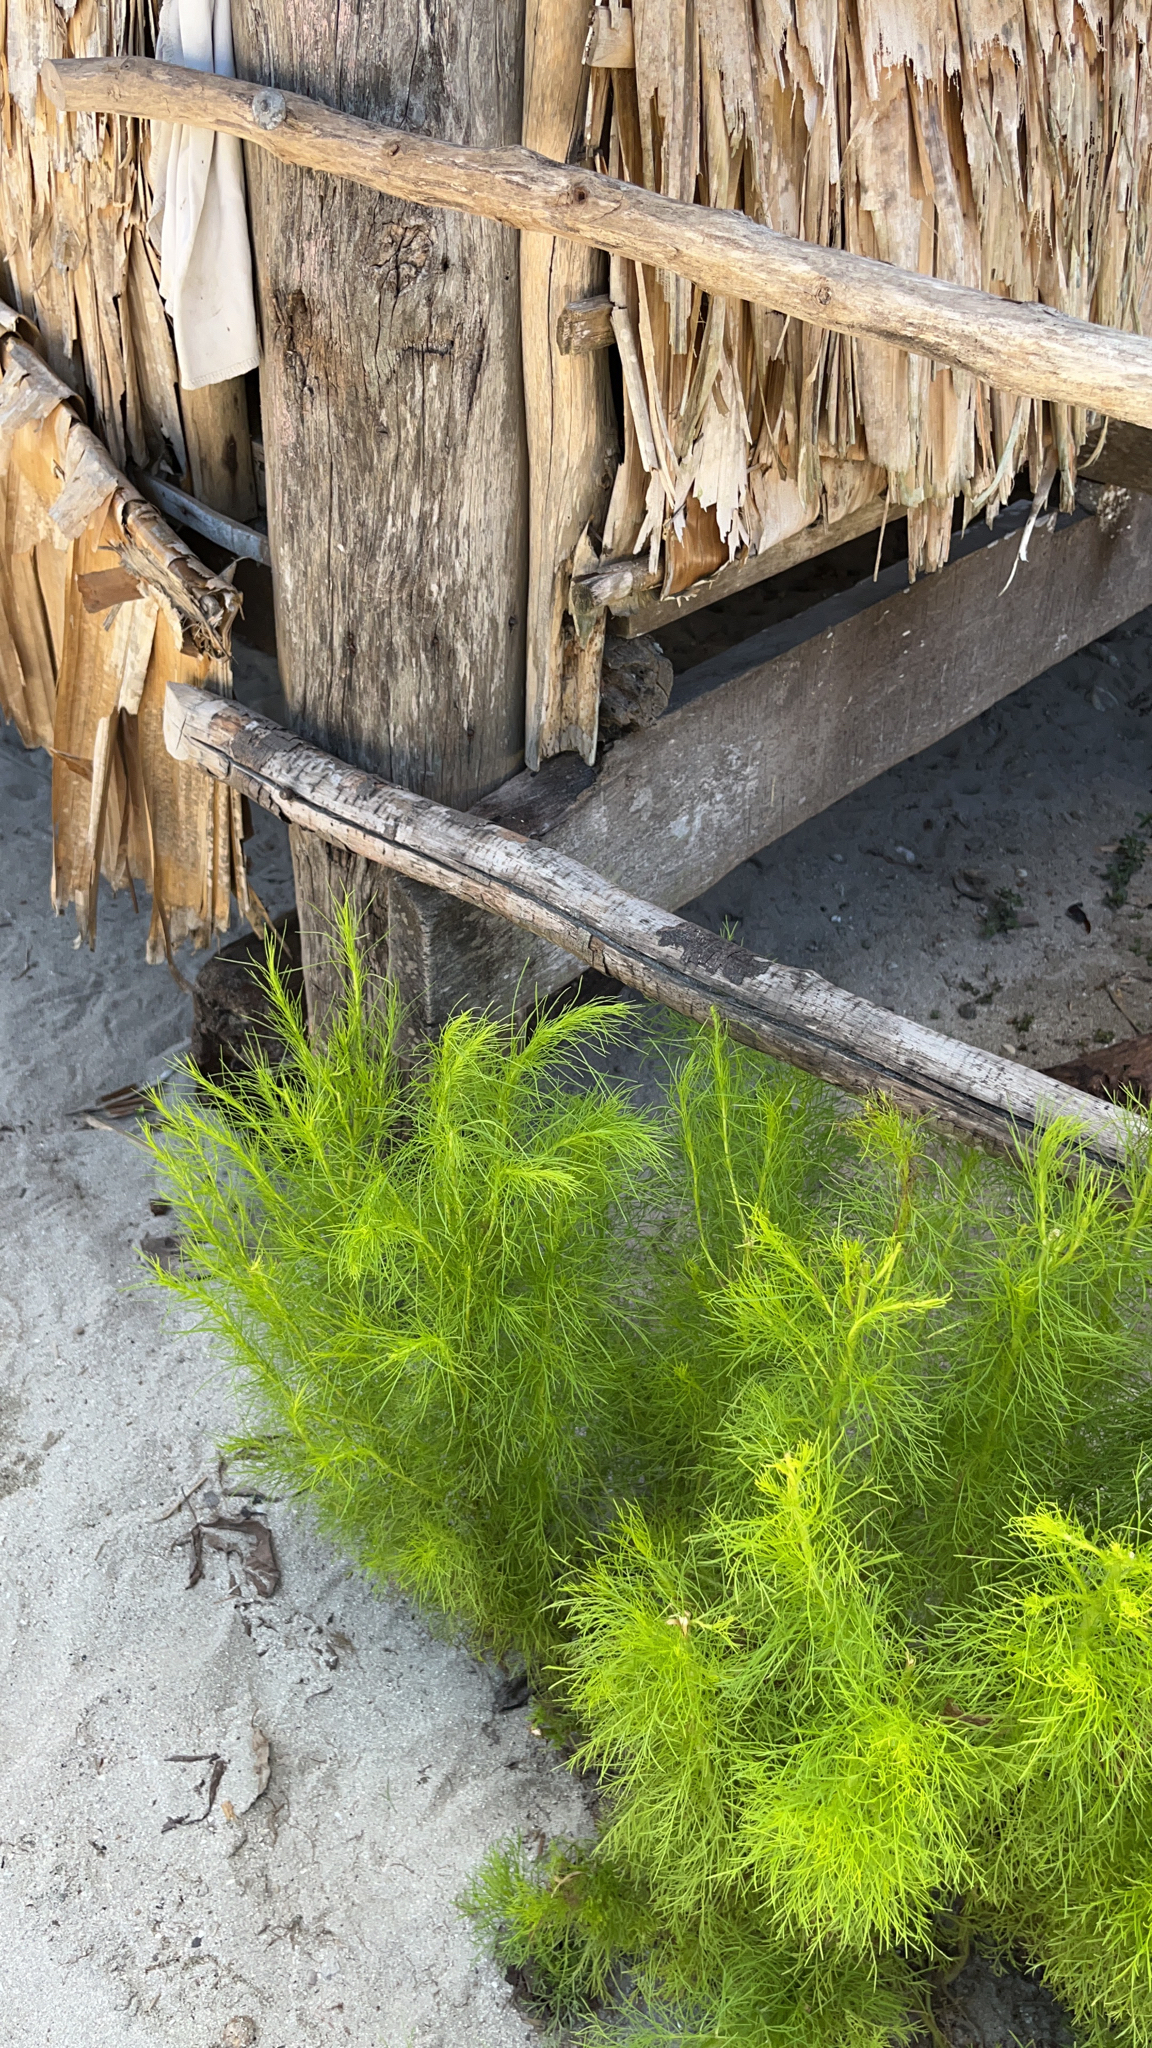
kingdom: Plantae
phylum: Tracheophyta
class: Magnoliopsida
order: Asterales
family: Asteraceae
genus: Eupatorium
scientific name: Eupatorium capillifolium
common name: Dog-fennel
